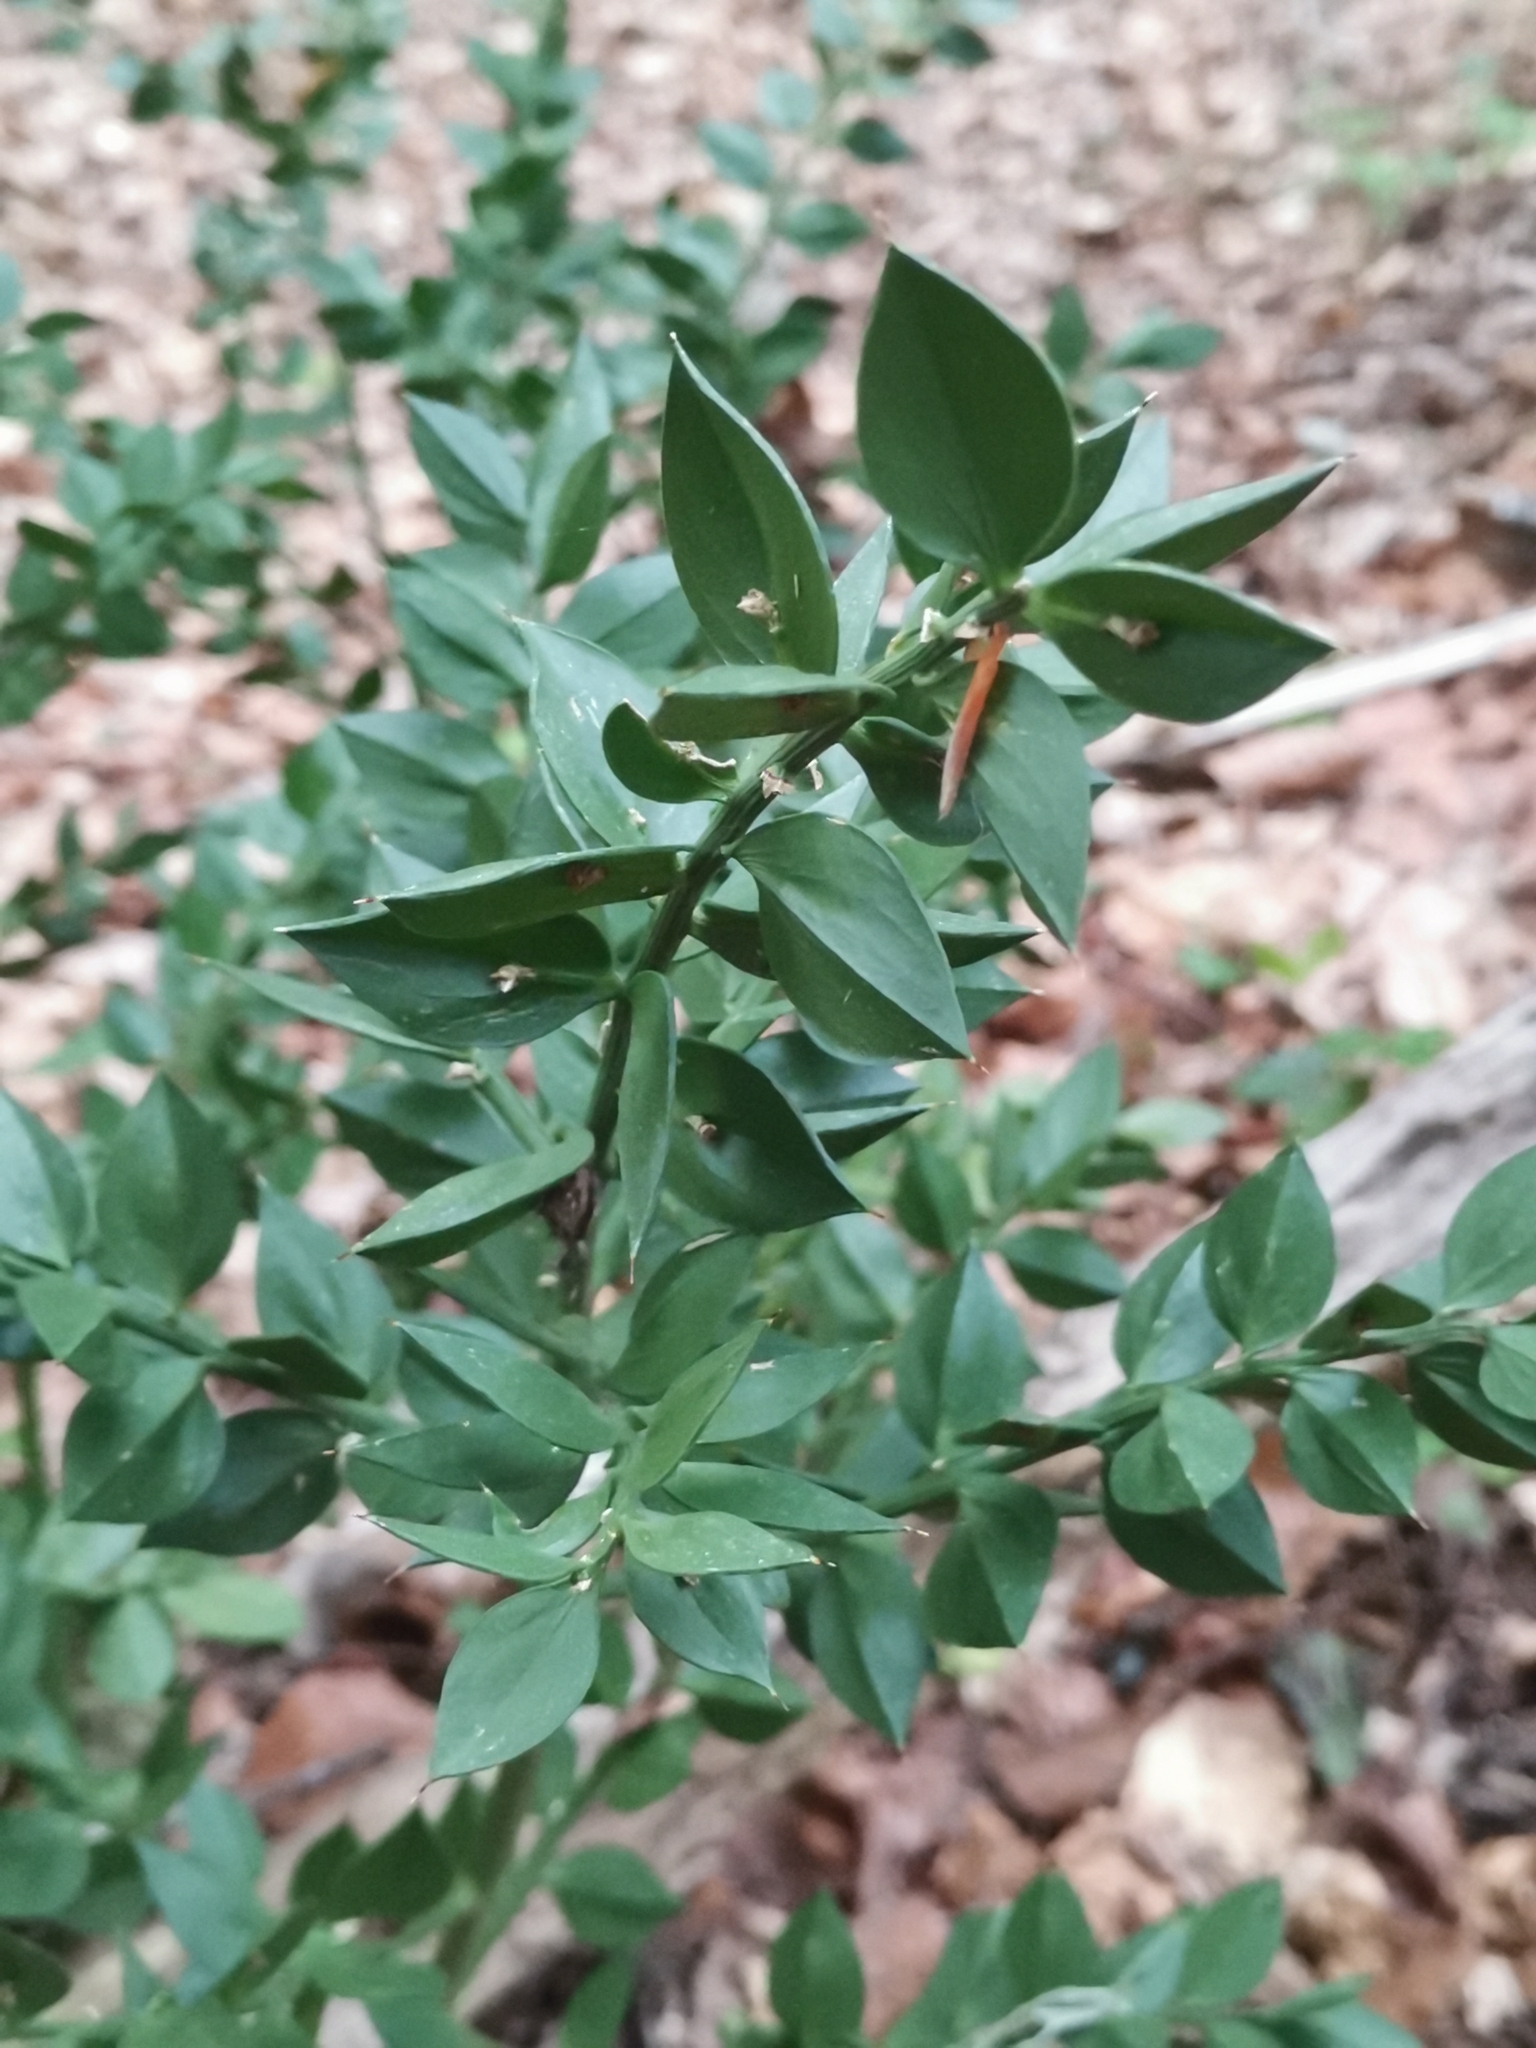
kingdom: Plantae
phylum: Tracheophyta
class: Liliopsida
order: Asparagales
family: Asparagaceae
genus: Ruscus
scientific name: Ruscus aculeatus
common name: Butcher's-broom
